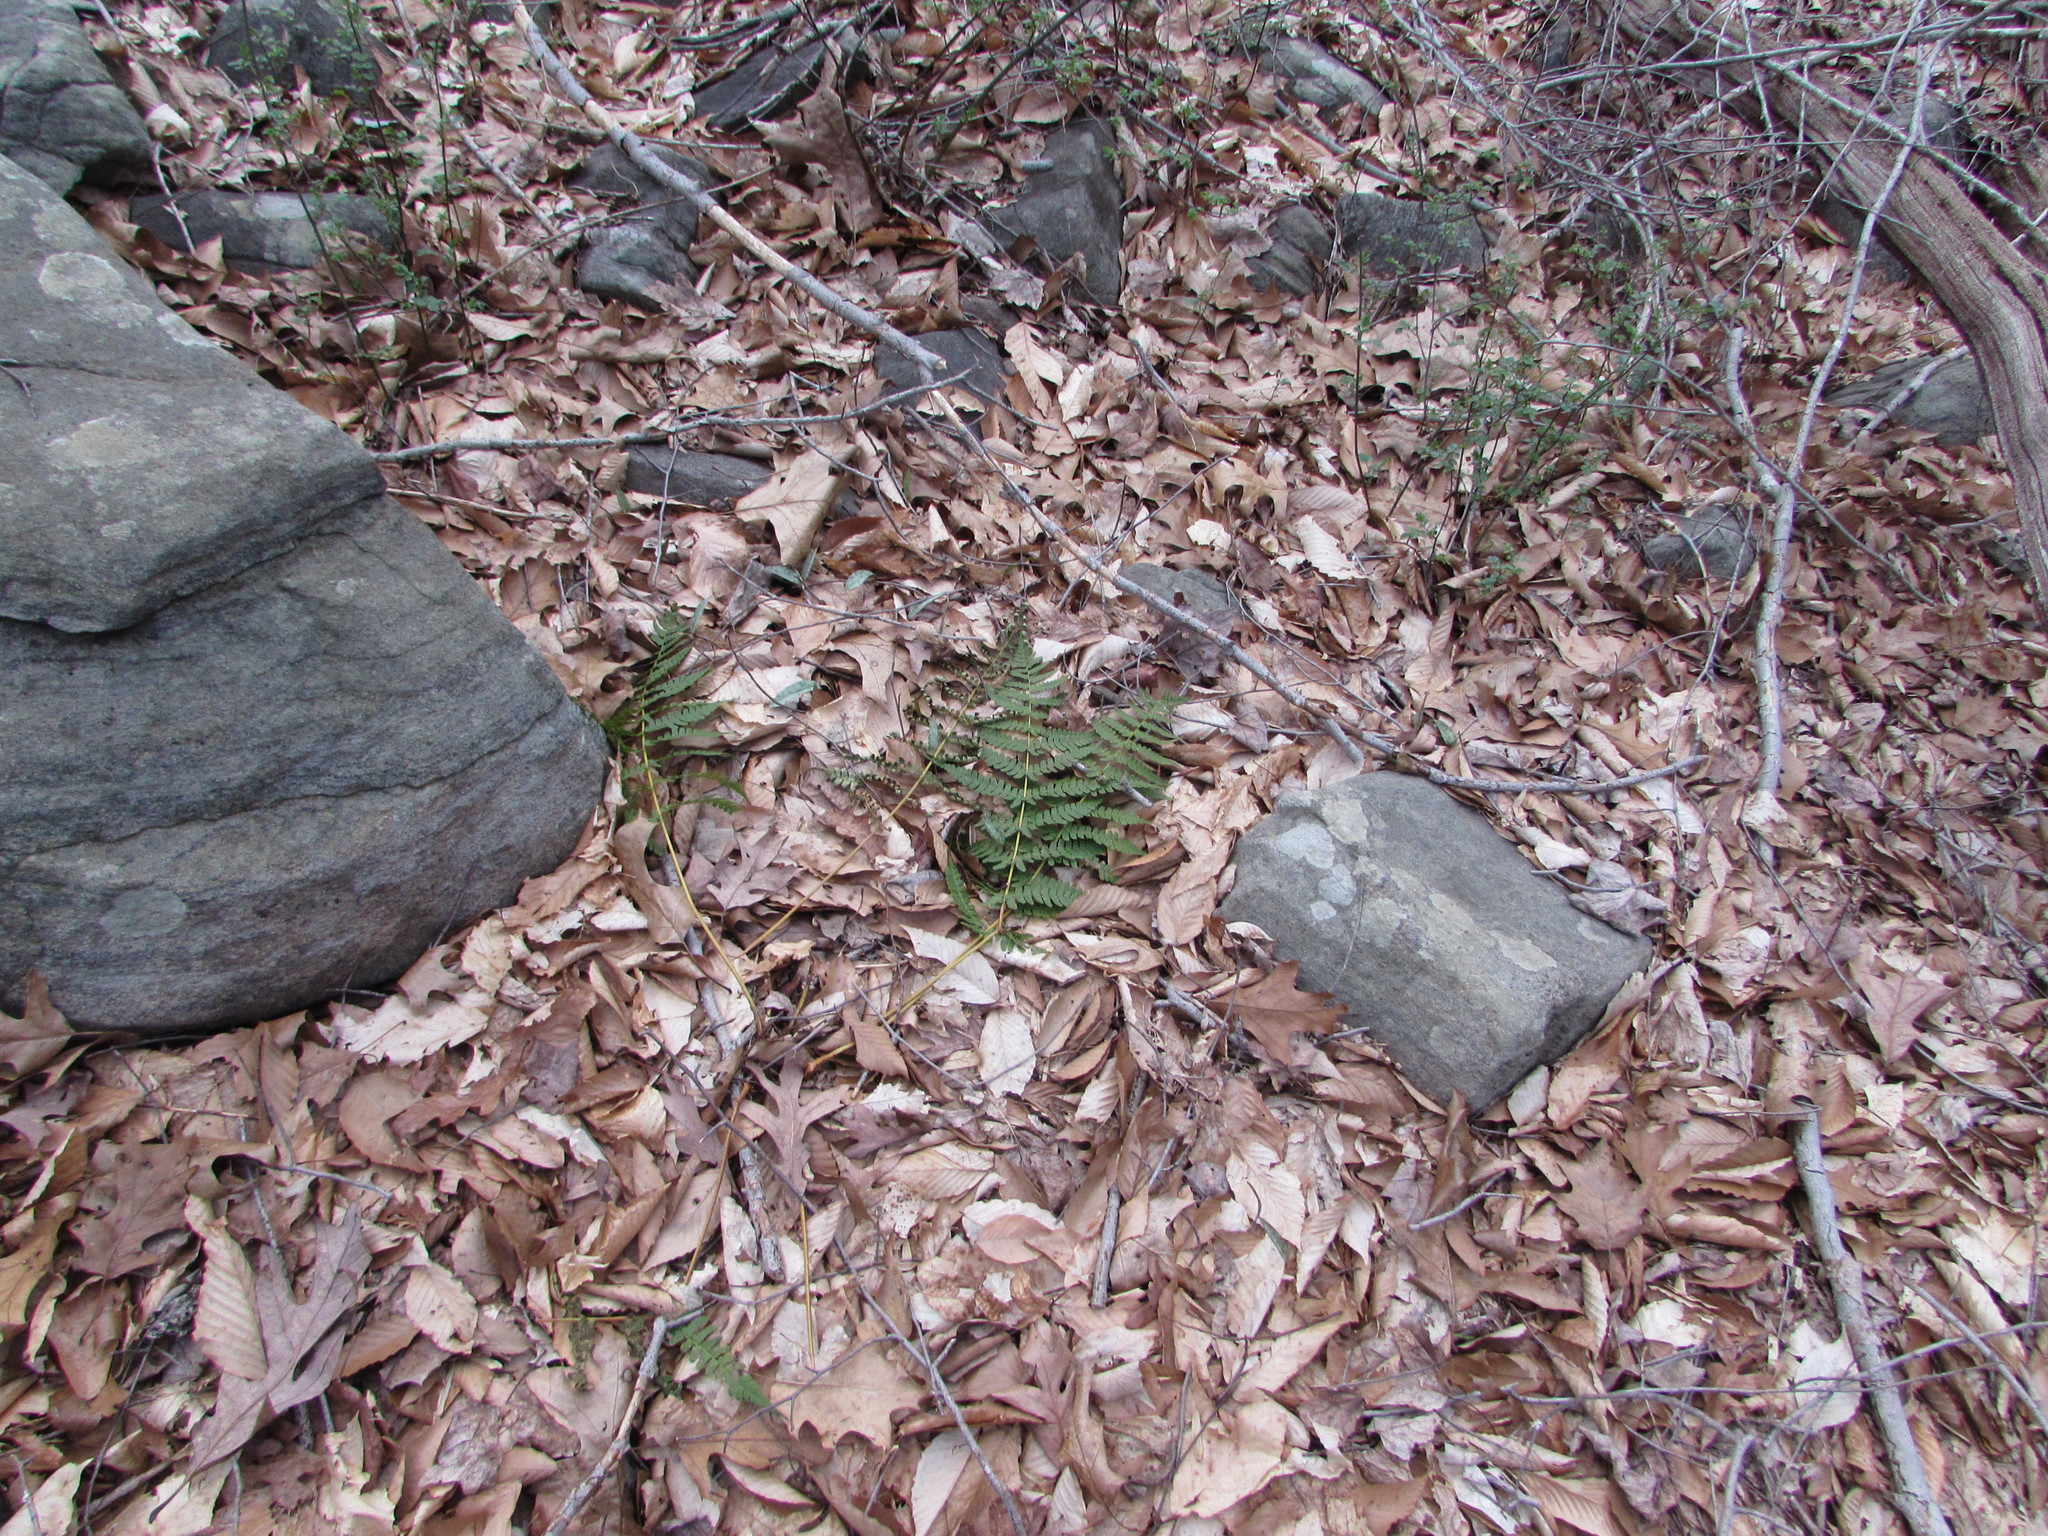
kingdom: Plantae
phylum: Tracheophyta
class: Polypodiopsida
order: Polypodiales
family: Dryopteridaceae
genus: Dryopteris
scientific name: Dryopteris marginalis
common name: Marginal wood fern
